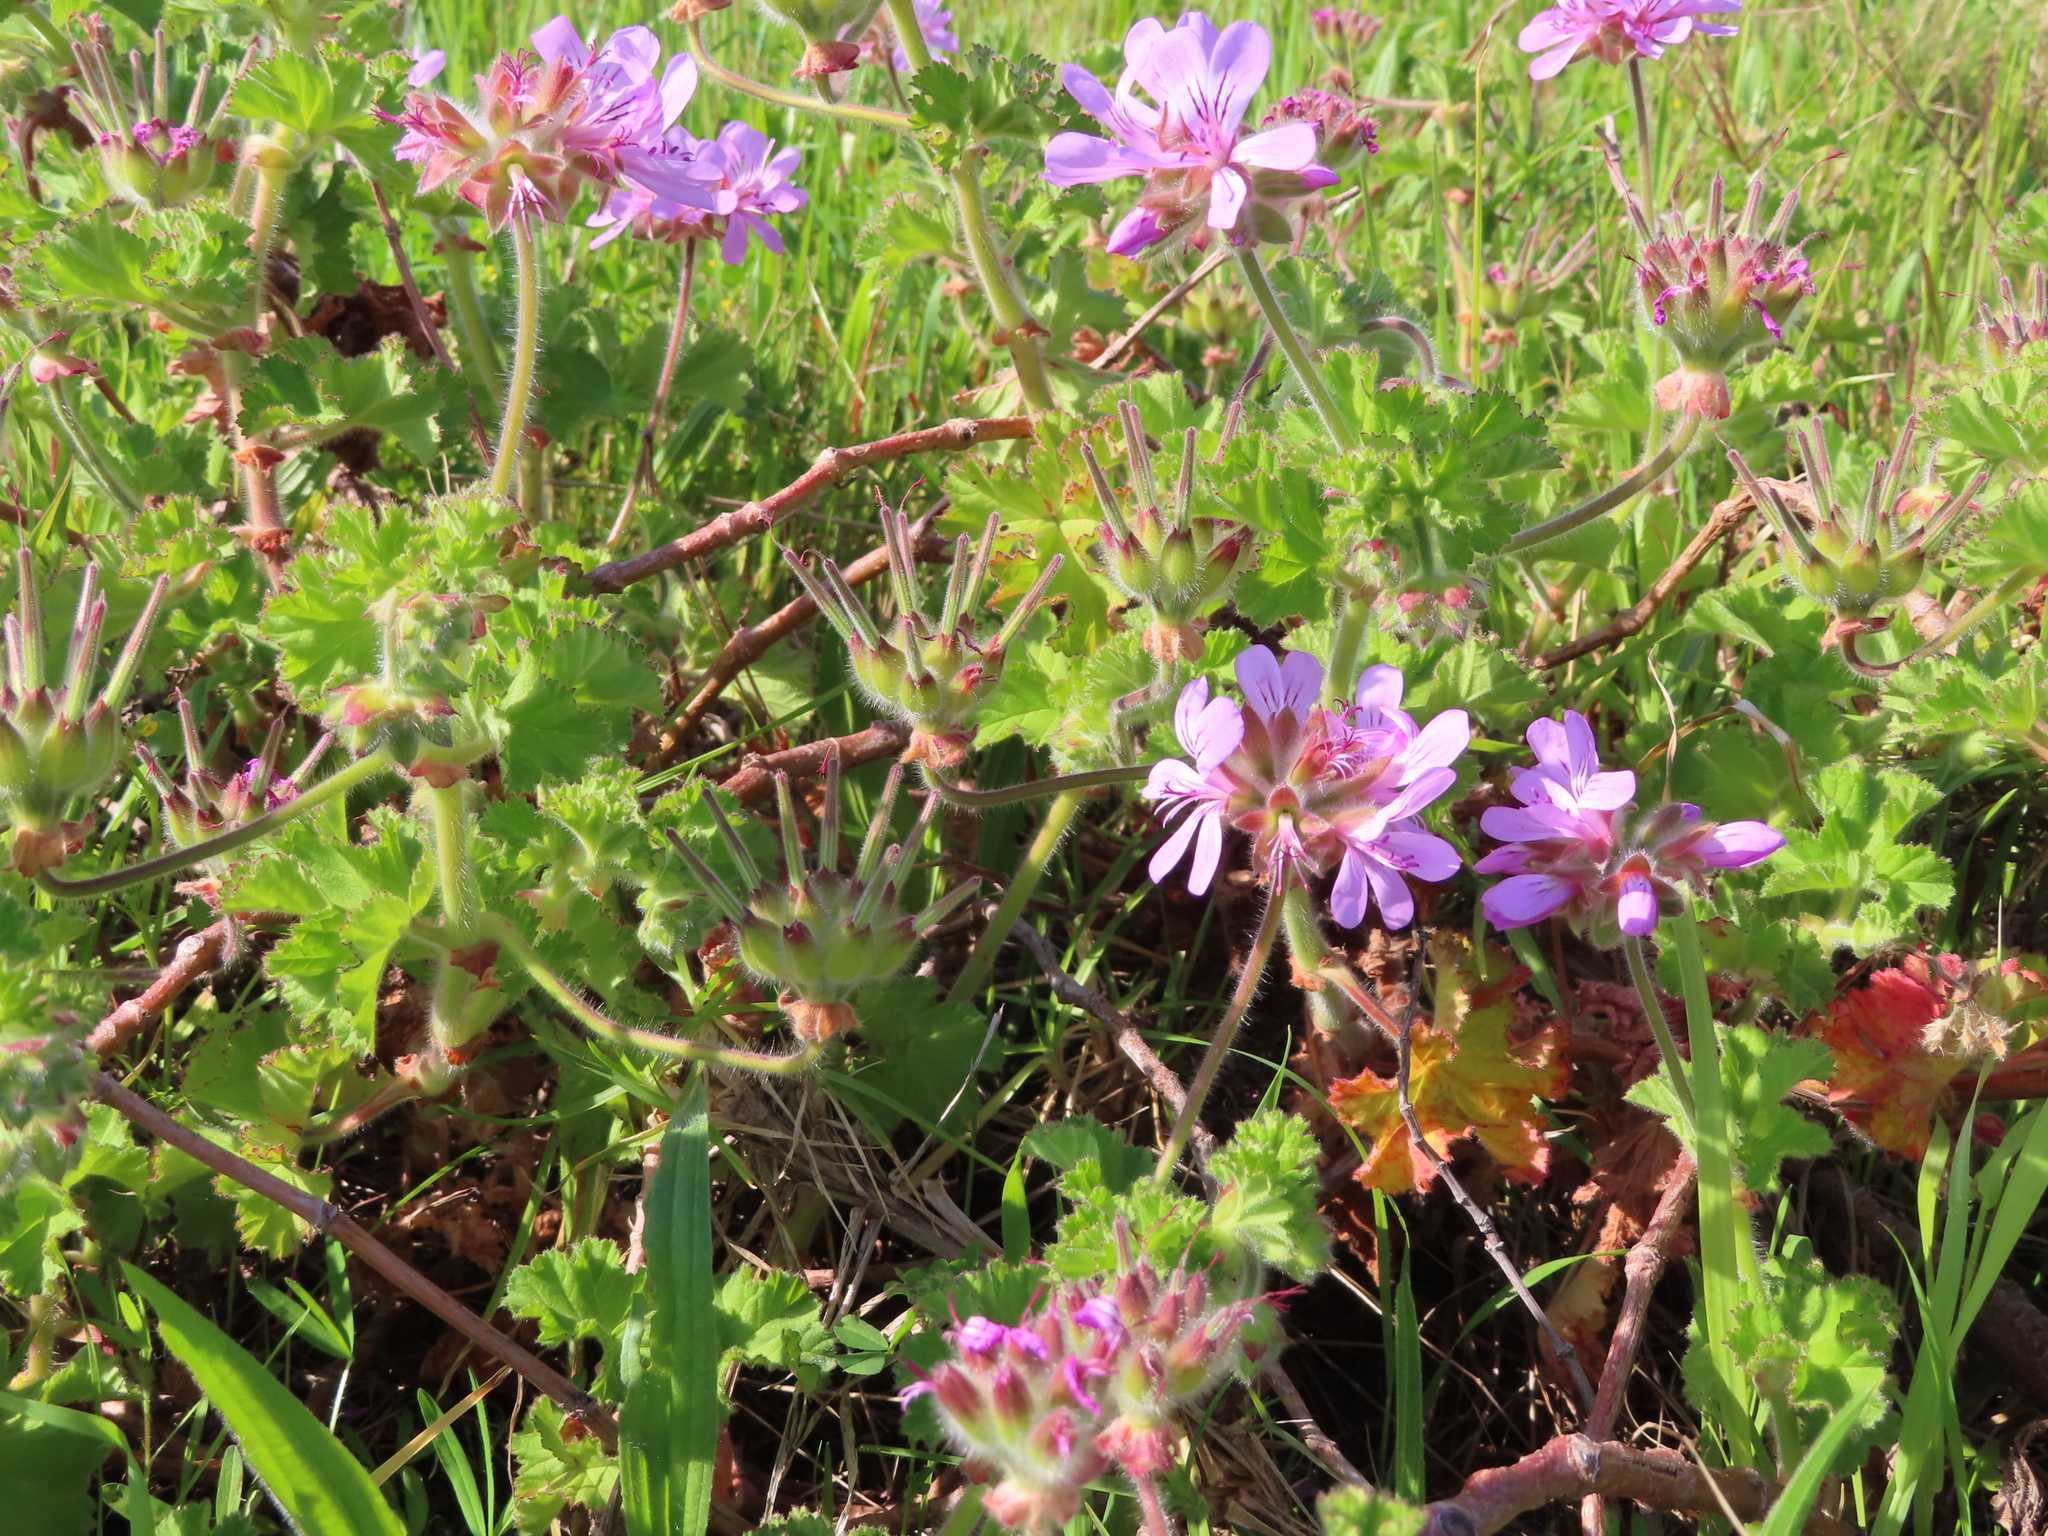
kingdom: Plantae
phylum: Tracheophyta
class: Magnoliopsida
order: Geraniales
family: Geraniaceae
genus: Pelargonium
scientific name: Pelargonium capitatum
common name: Rose scented geranium
